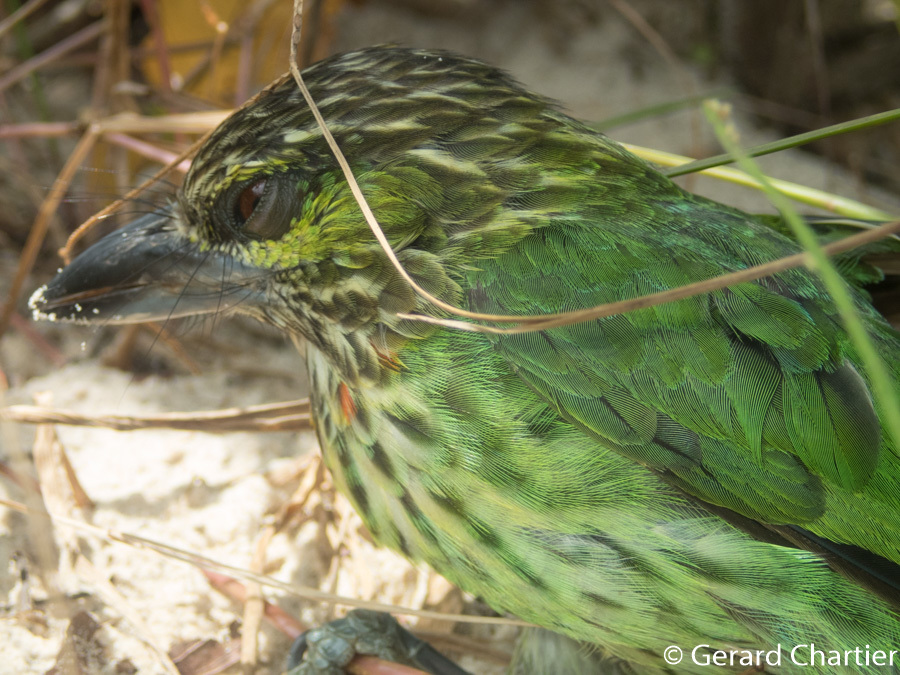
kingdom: Animalia
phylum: Chordata
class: Aves
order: Piciformes
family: Megalaimidae
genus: Psilopogon
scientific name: Psilopogon faiostrictus
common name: Green-eared barbet
